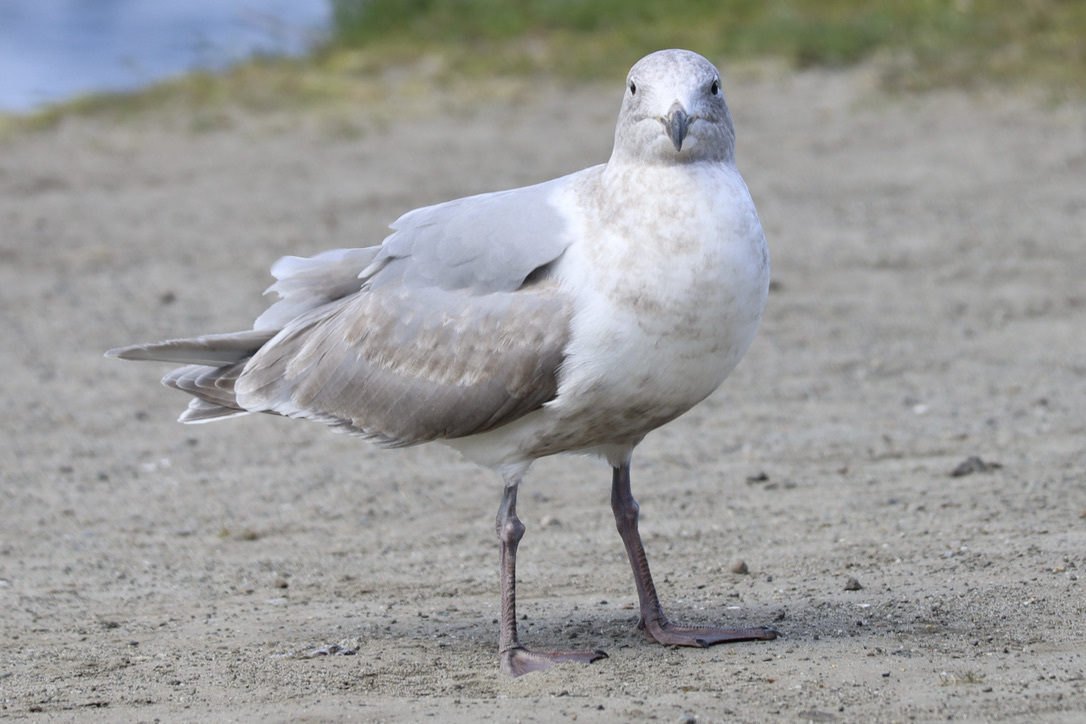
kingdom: Animalia
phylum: Chordata
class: Aves
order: Charadriiformes
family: Laridae
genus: Larus
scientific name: Larus
